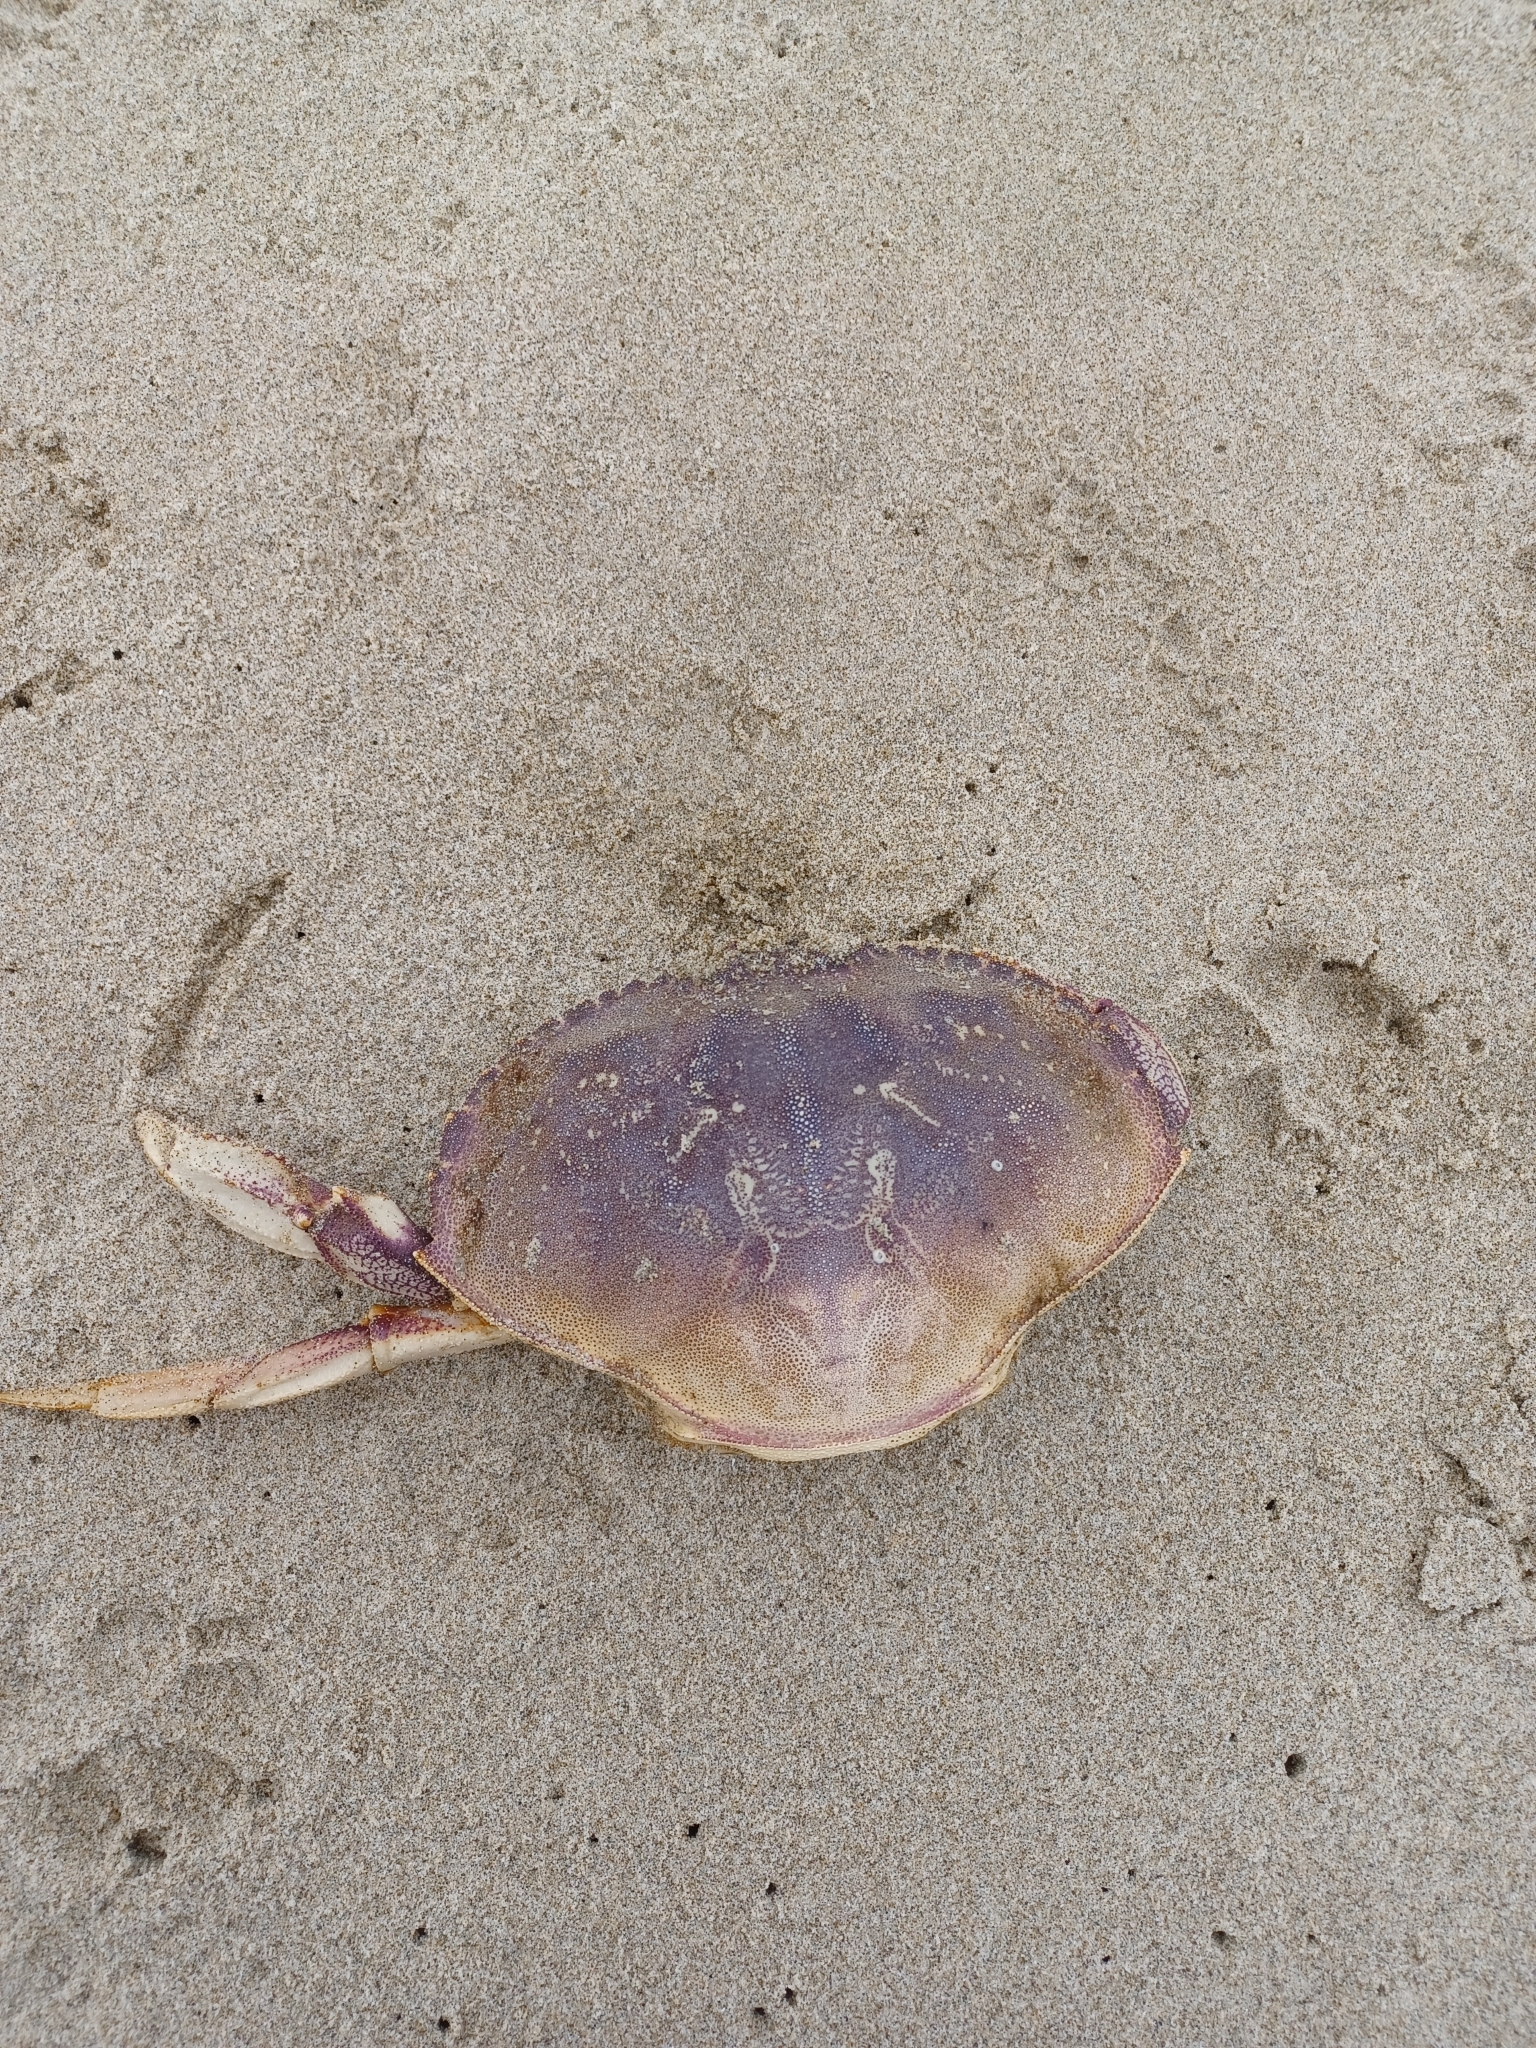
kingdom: Animalia
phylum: Arthropoda
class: Malacostraca
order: Decapoda
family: Cancridae
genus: Metacarcinus
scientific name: Metacarcinus magister
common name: Californian crab
